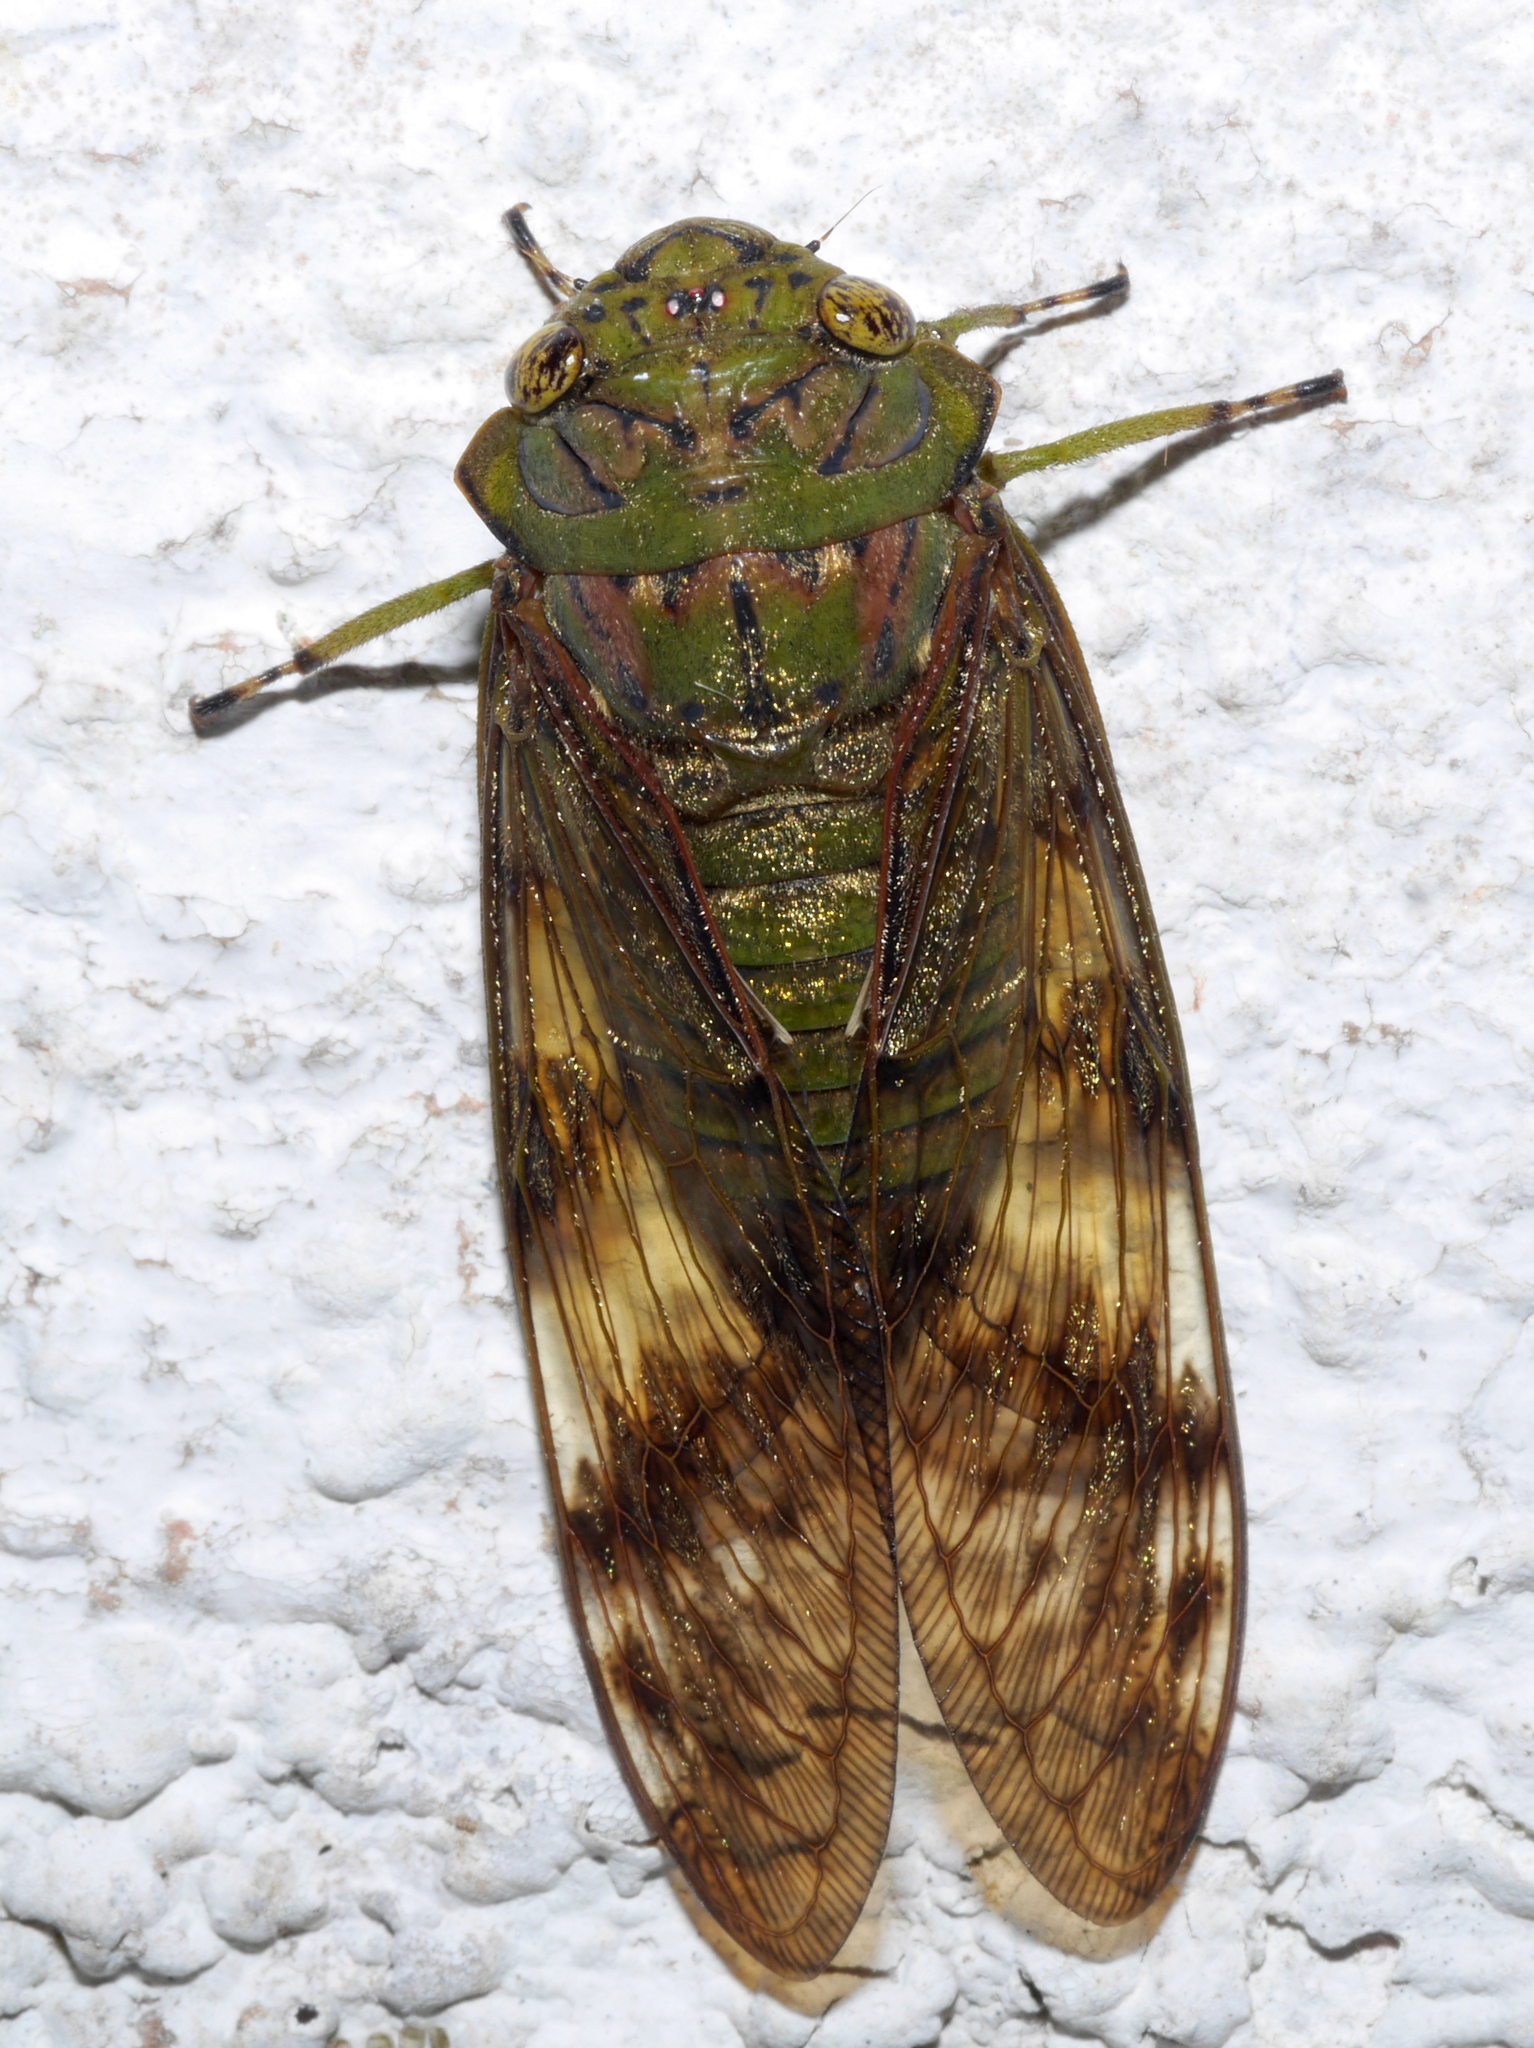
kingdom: Animalia
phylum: Arthropoda
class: Insecta
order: Hemiptera
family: Cicadidae
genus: Sadaka
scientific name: Sadaka radiata
